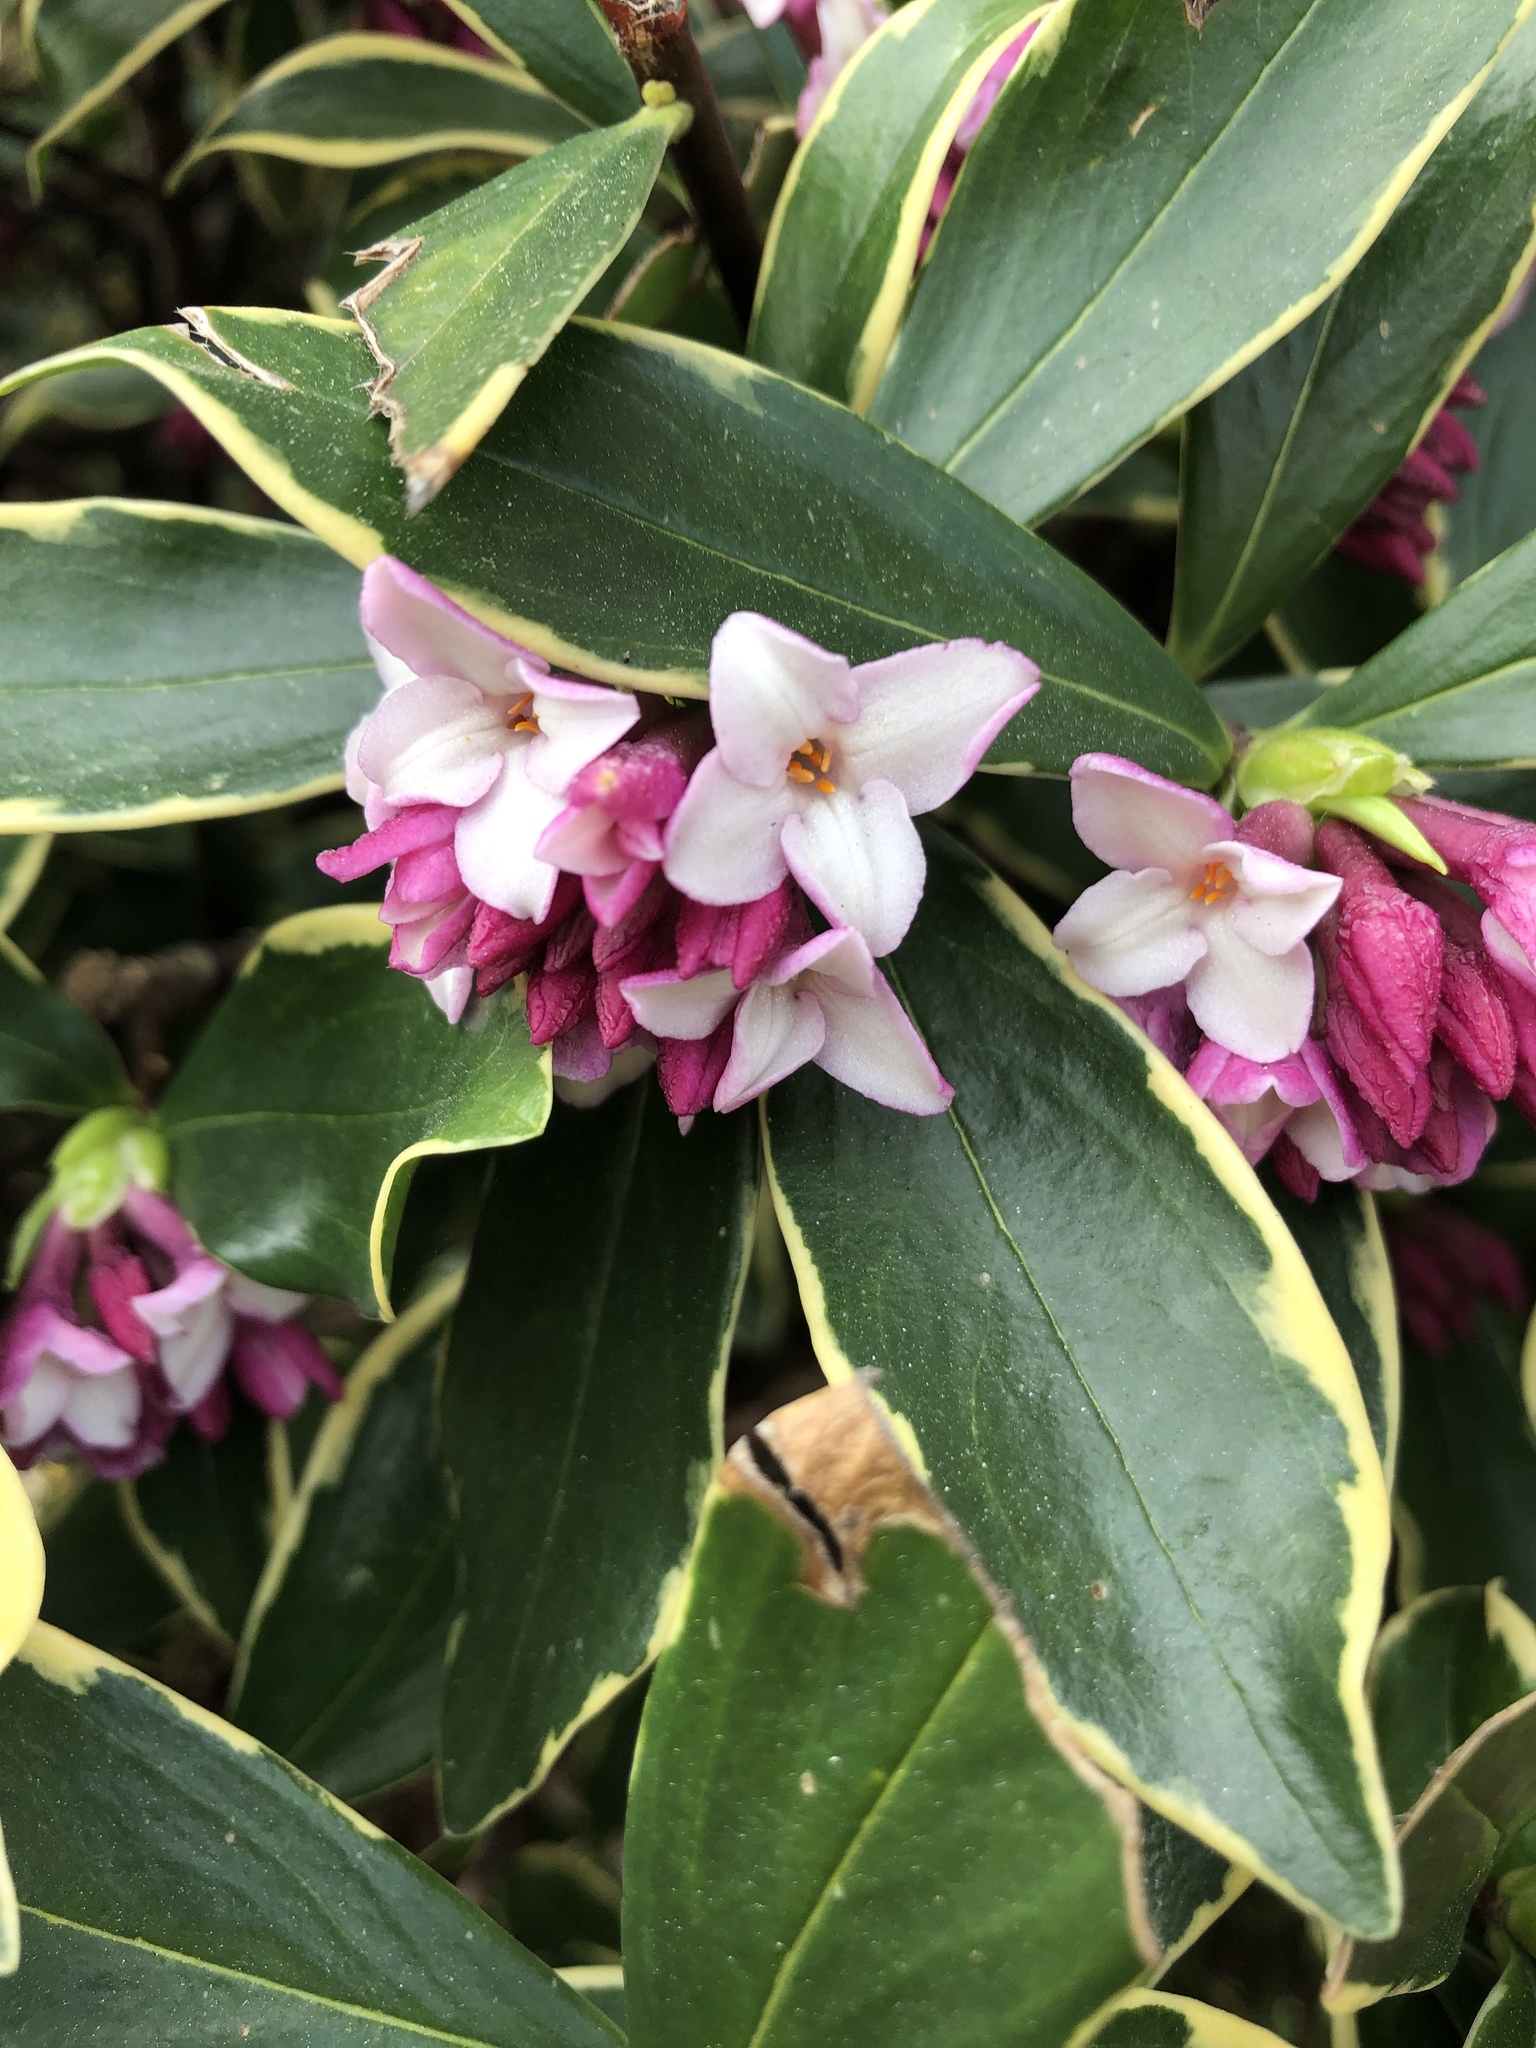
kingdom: Plantae
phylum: Tracheophyta
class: Magnoliopsida
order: Malvales
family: Thymelaeaceae
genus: Daphne
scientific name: Daphne odora
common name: Winter daphne
